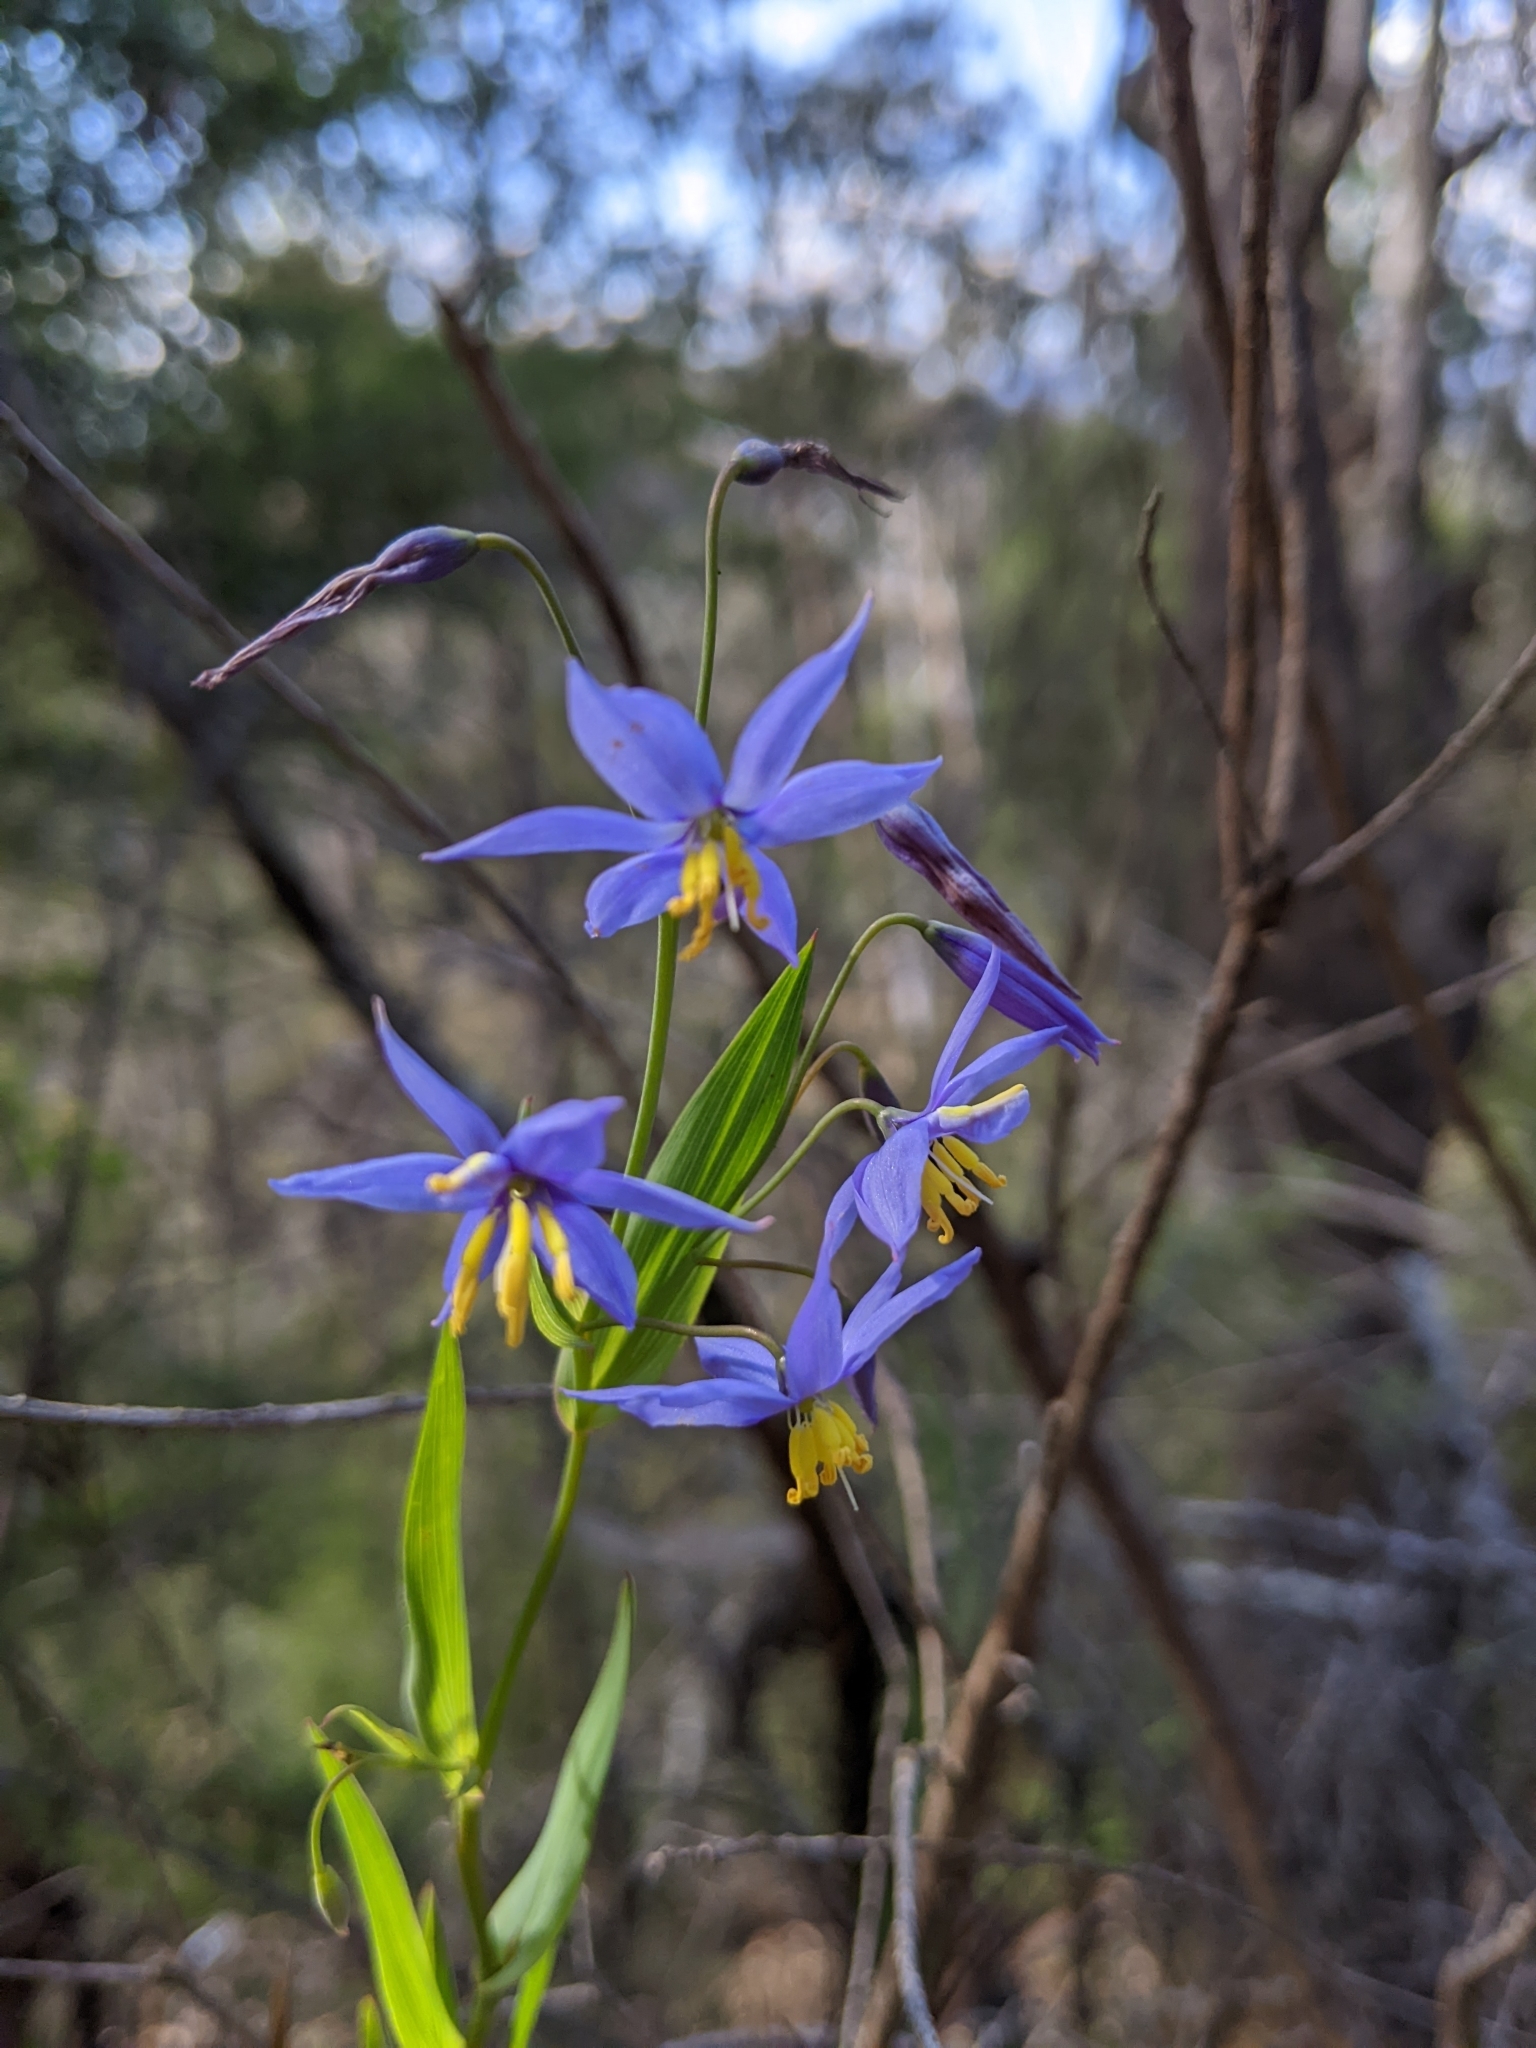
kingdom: Plantae
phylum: Tracheophyta
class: Liliopsida
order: Asparagales
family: Asphodelaceae
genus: Stypandra
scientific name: Stypandra glauca
